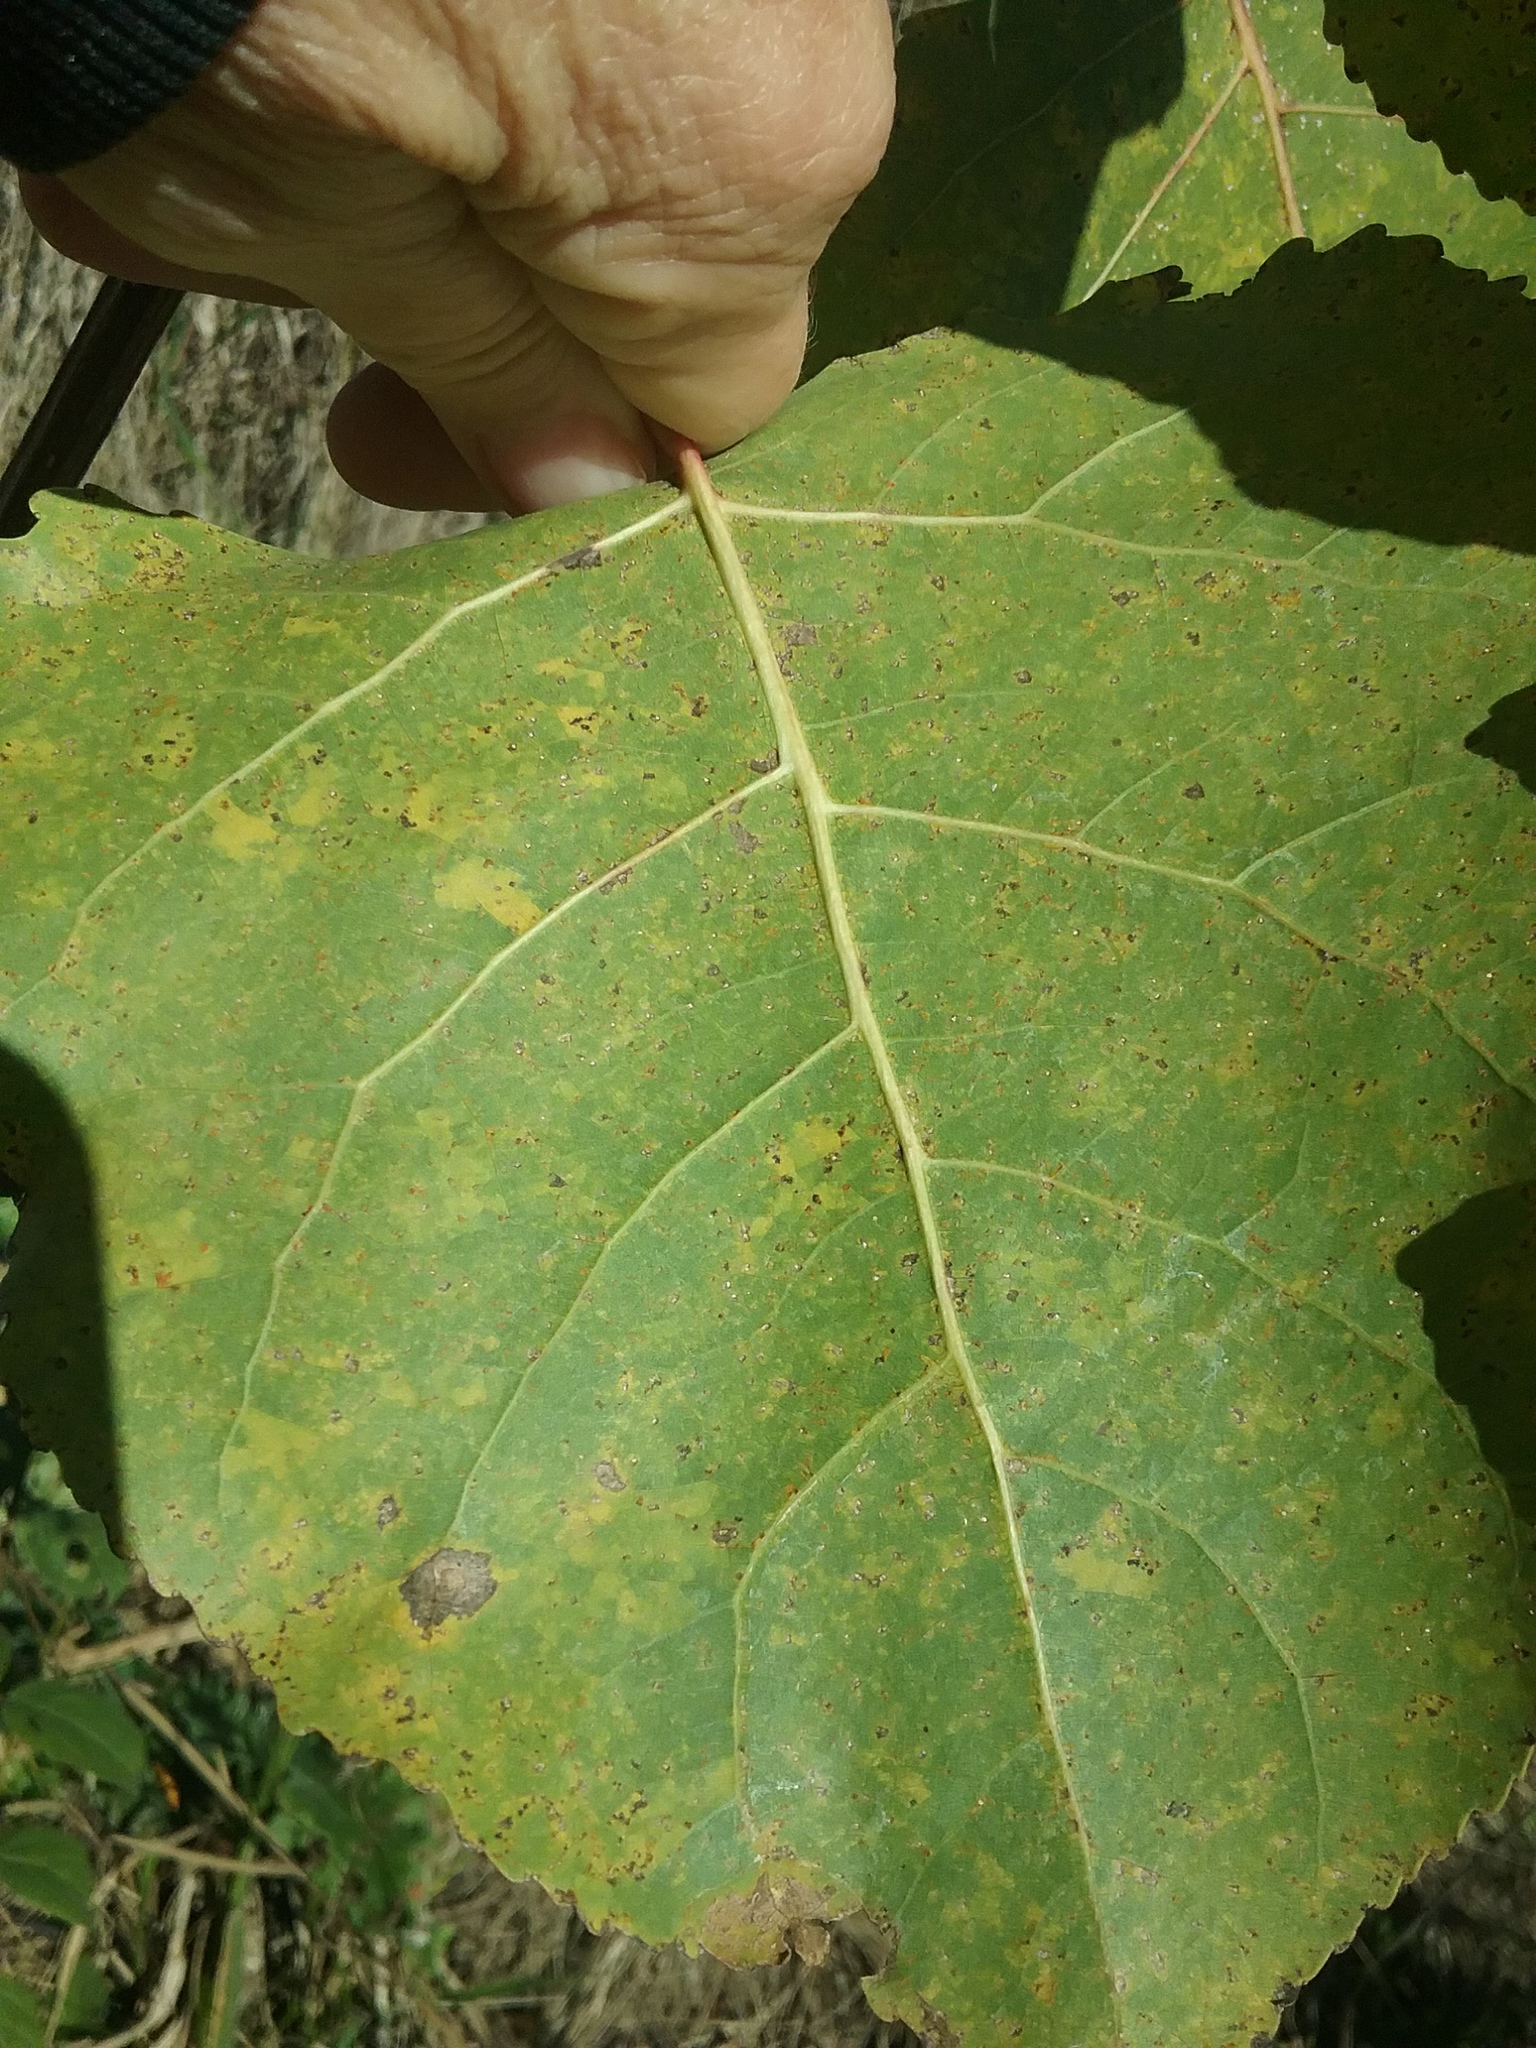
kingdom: Plantae
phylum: Tracheophyta
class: Magnoliopsida
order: Malpighiales
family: Salicaceae
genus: Populus
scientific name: Populus deltoides
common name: Eastern cottonwood
